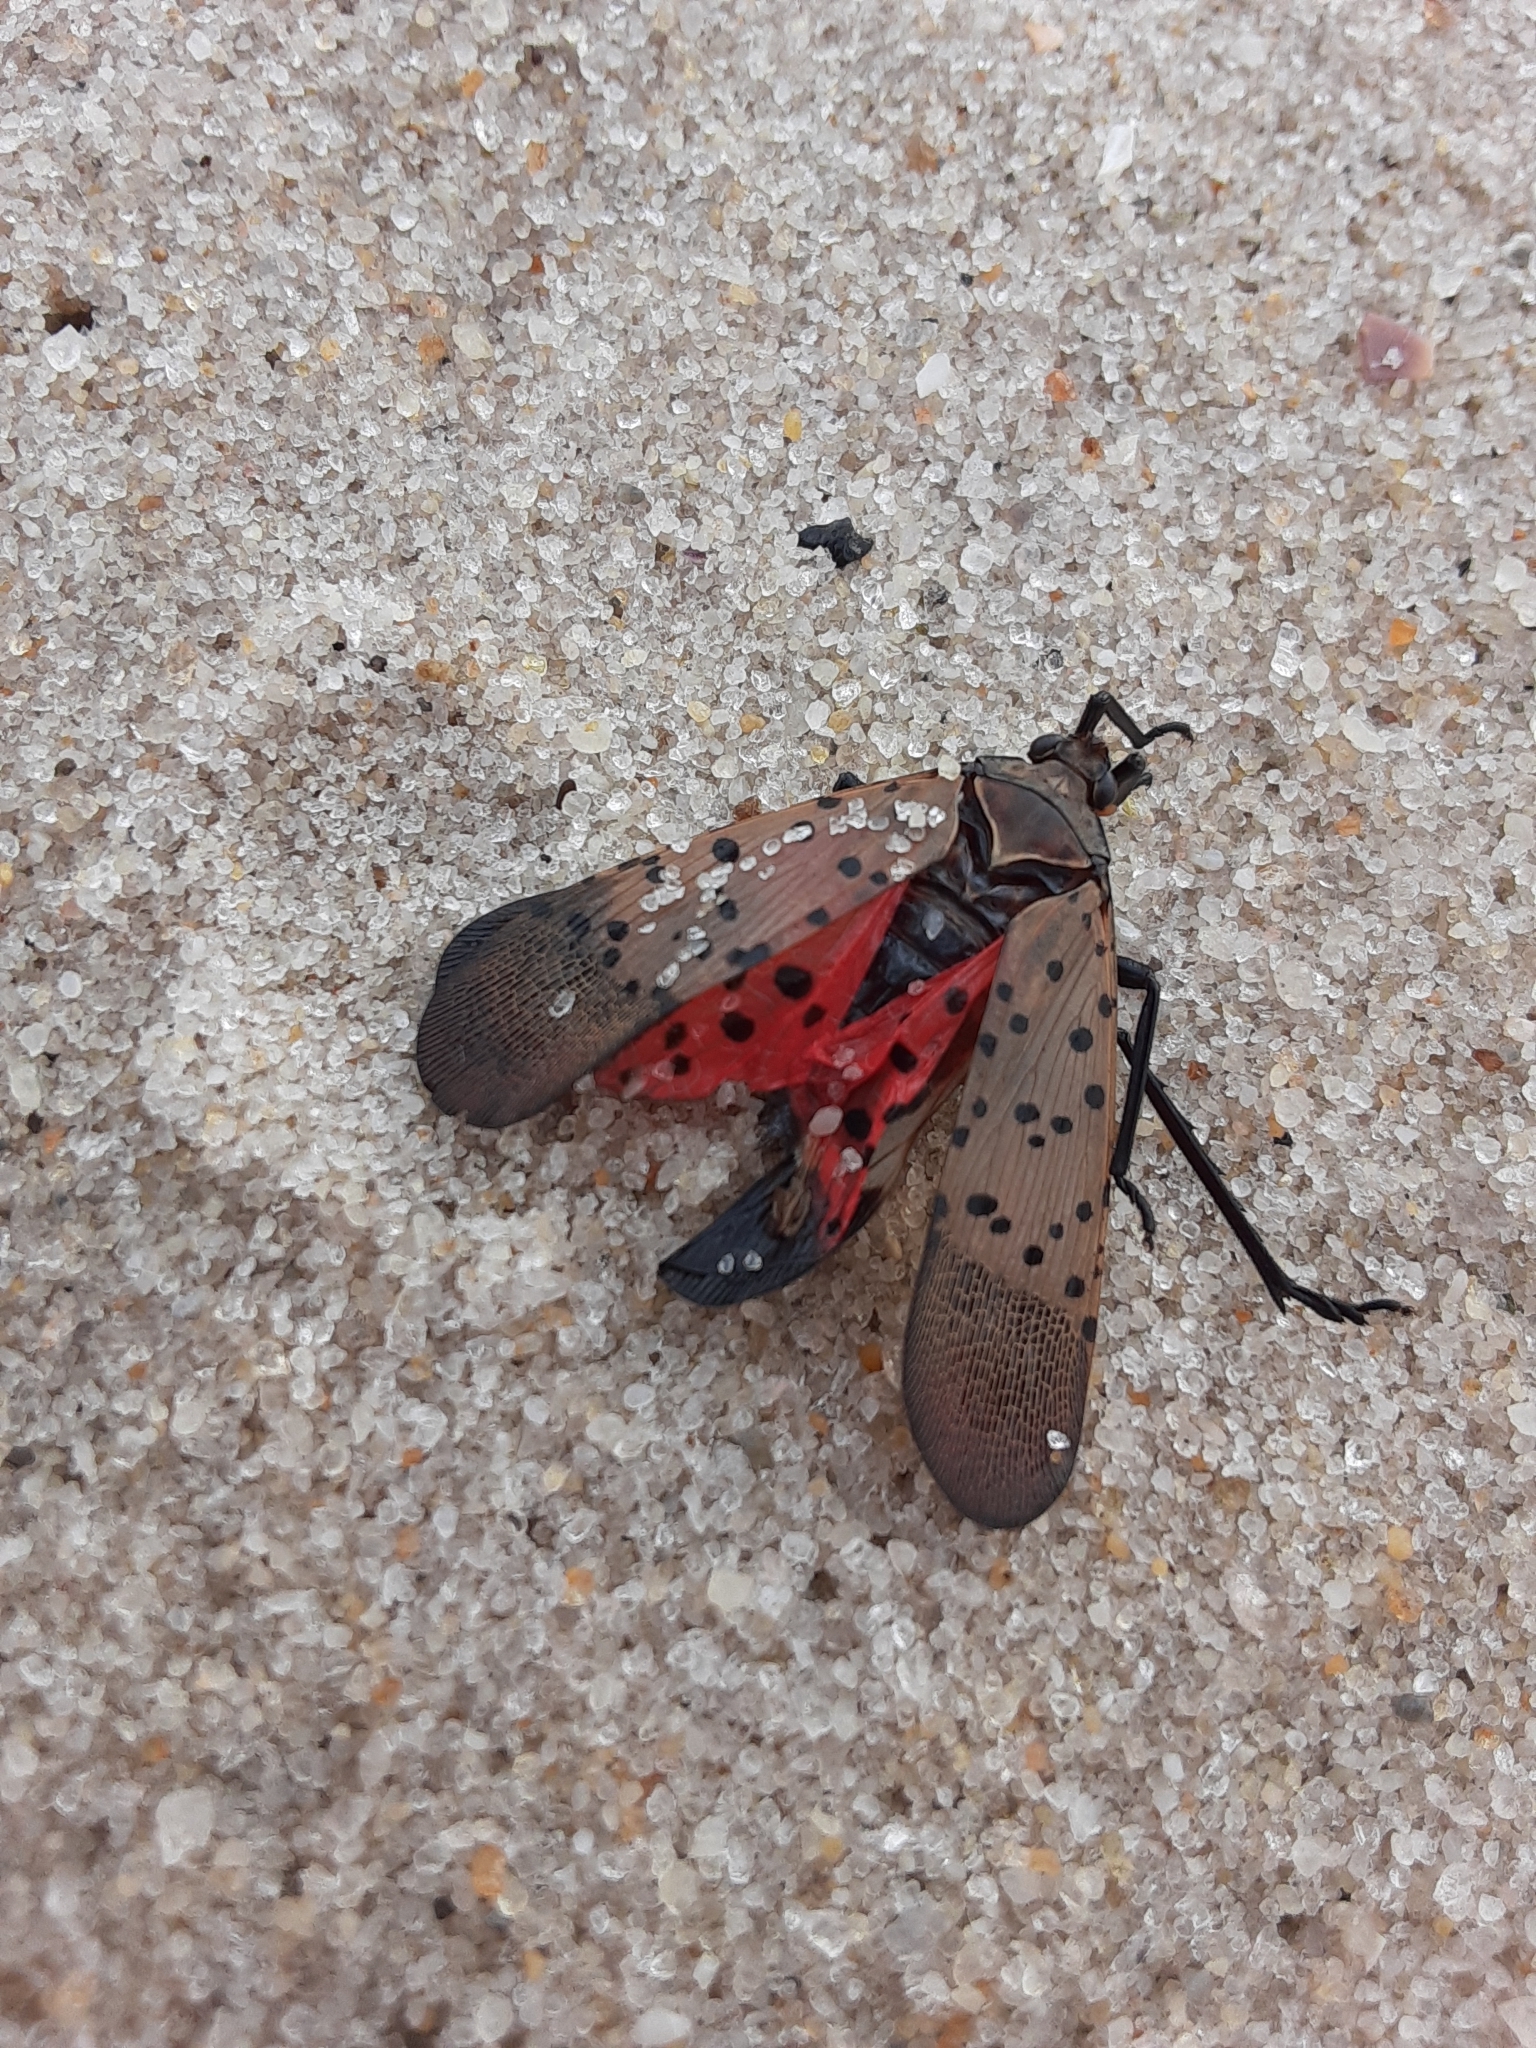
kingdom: Animalia
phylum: Arthropoda
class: Insecta
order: Hemiptera
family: Fulgoridae
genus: Lycorma
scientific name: Lycorma delicatula
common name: Spotted lanternfly
